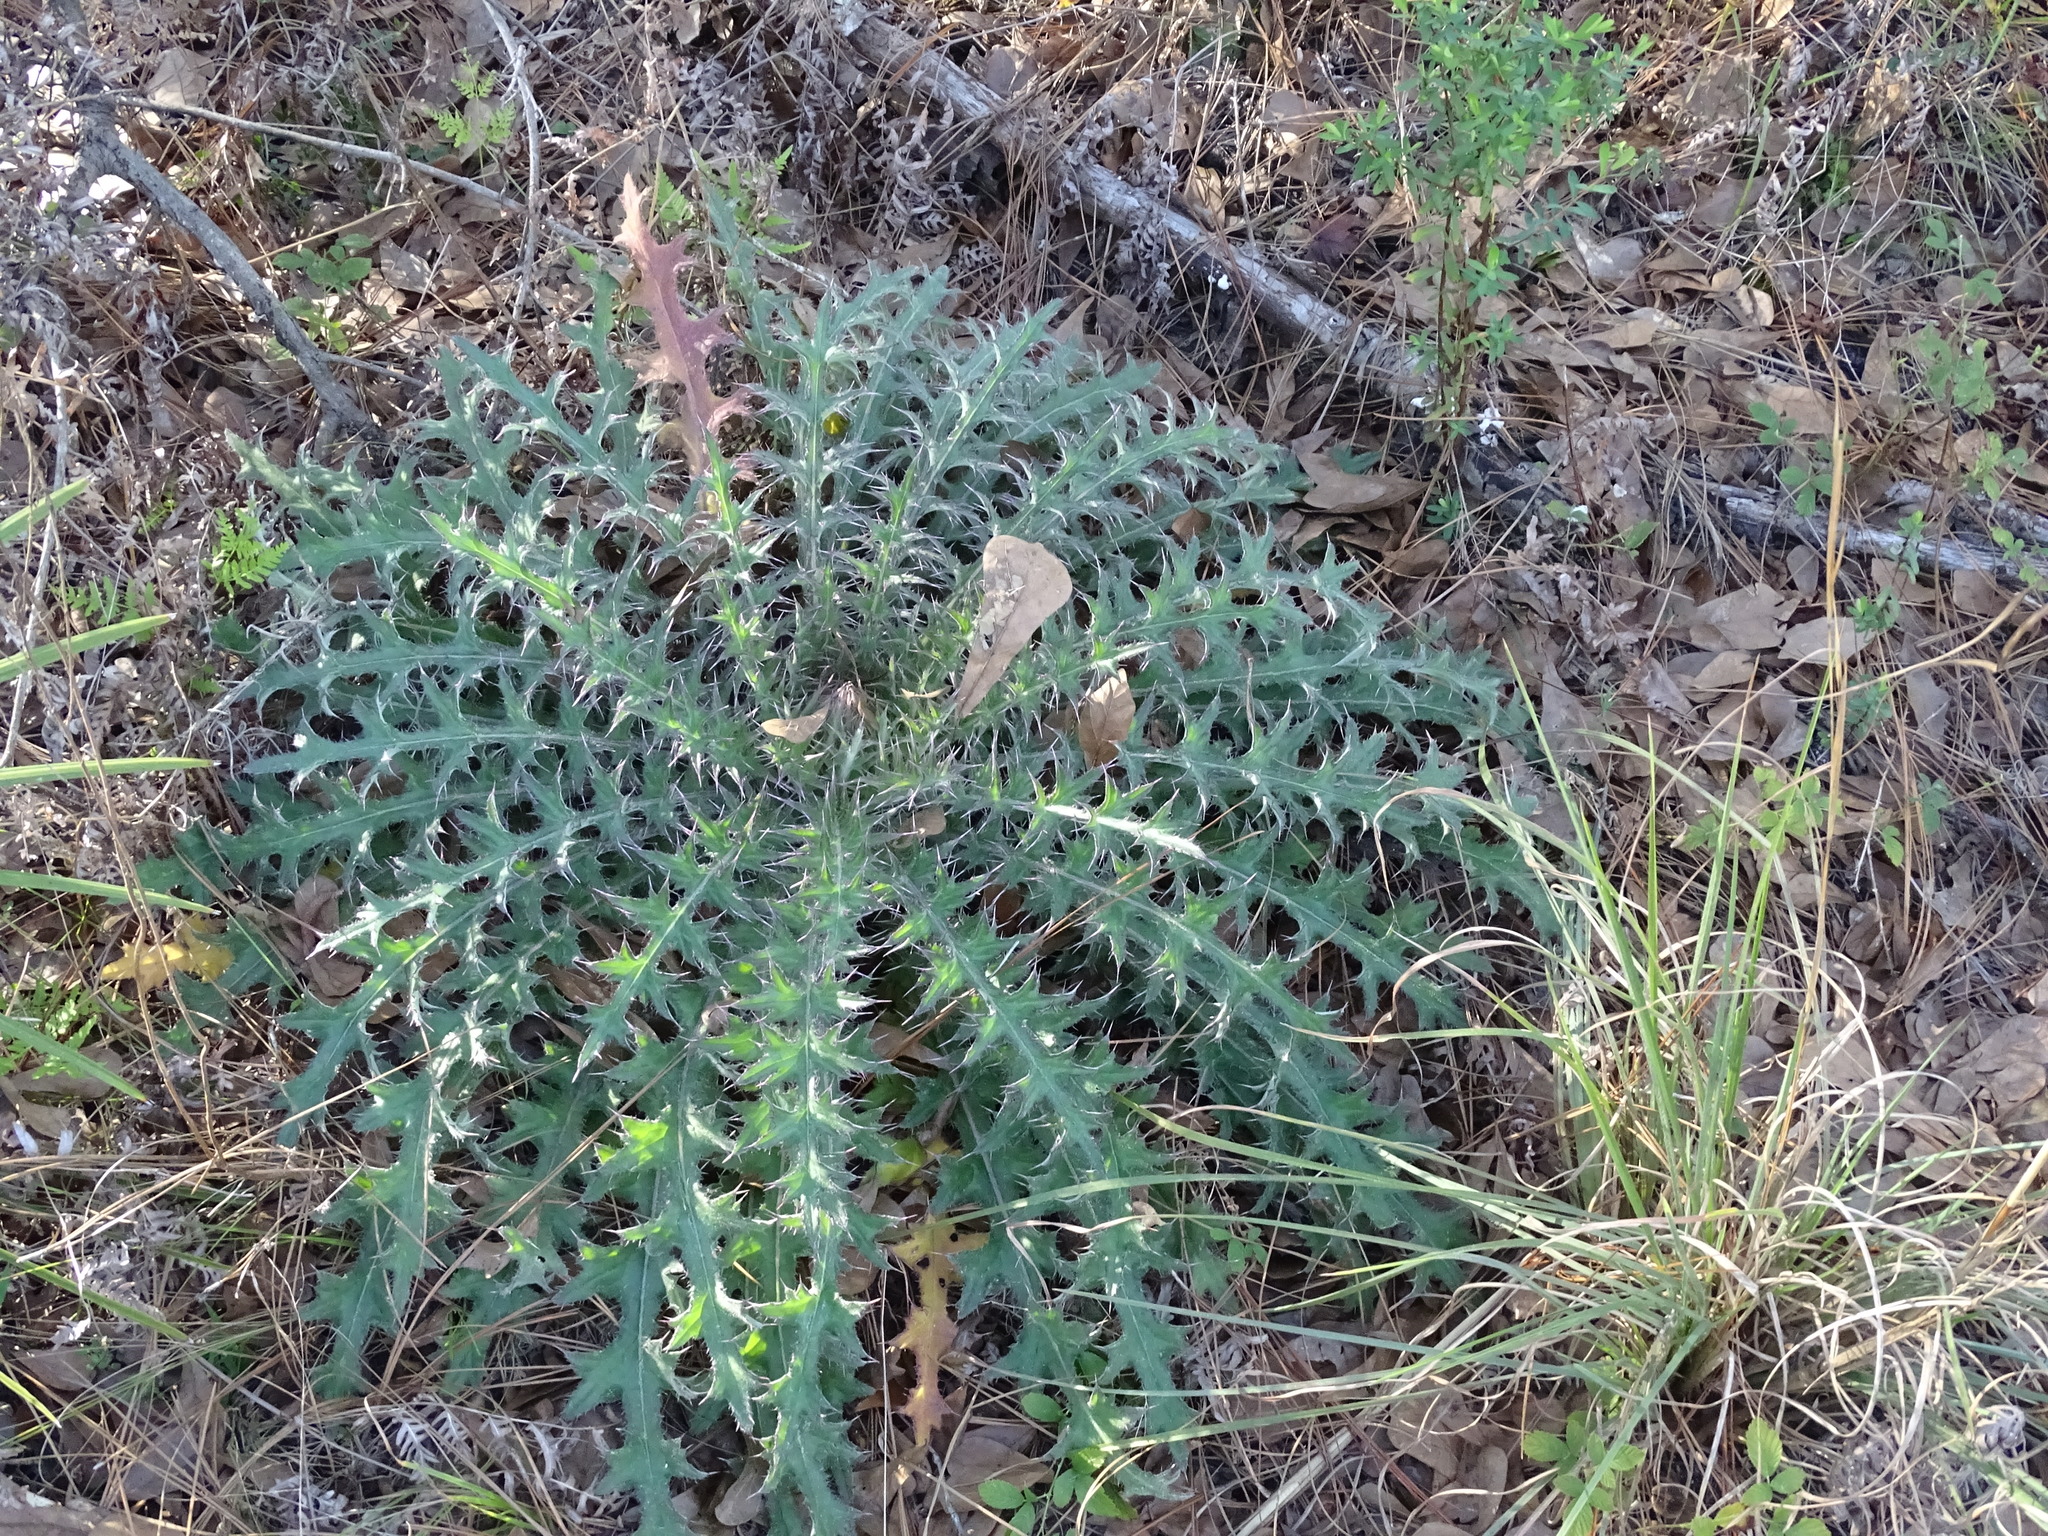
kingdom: Plantae
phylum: Tracheophyta
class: Magnoliopsida
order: Asterales
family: Asteraceae
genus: Cirsium
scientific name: Cirsium horridulum
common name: Bristly thistle
